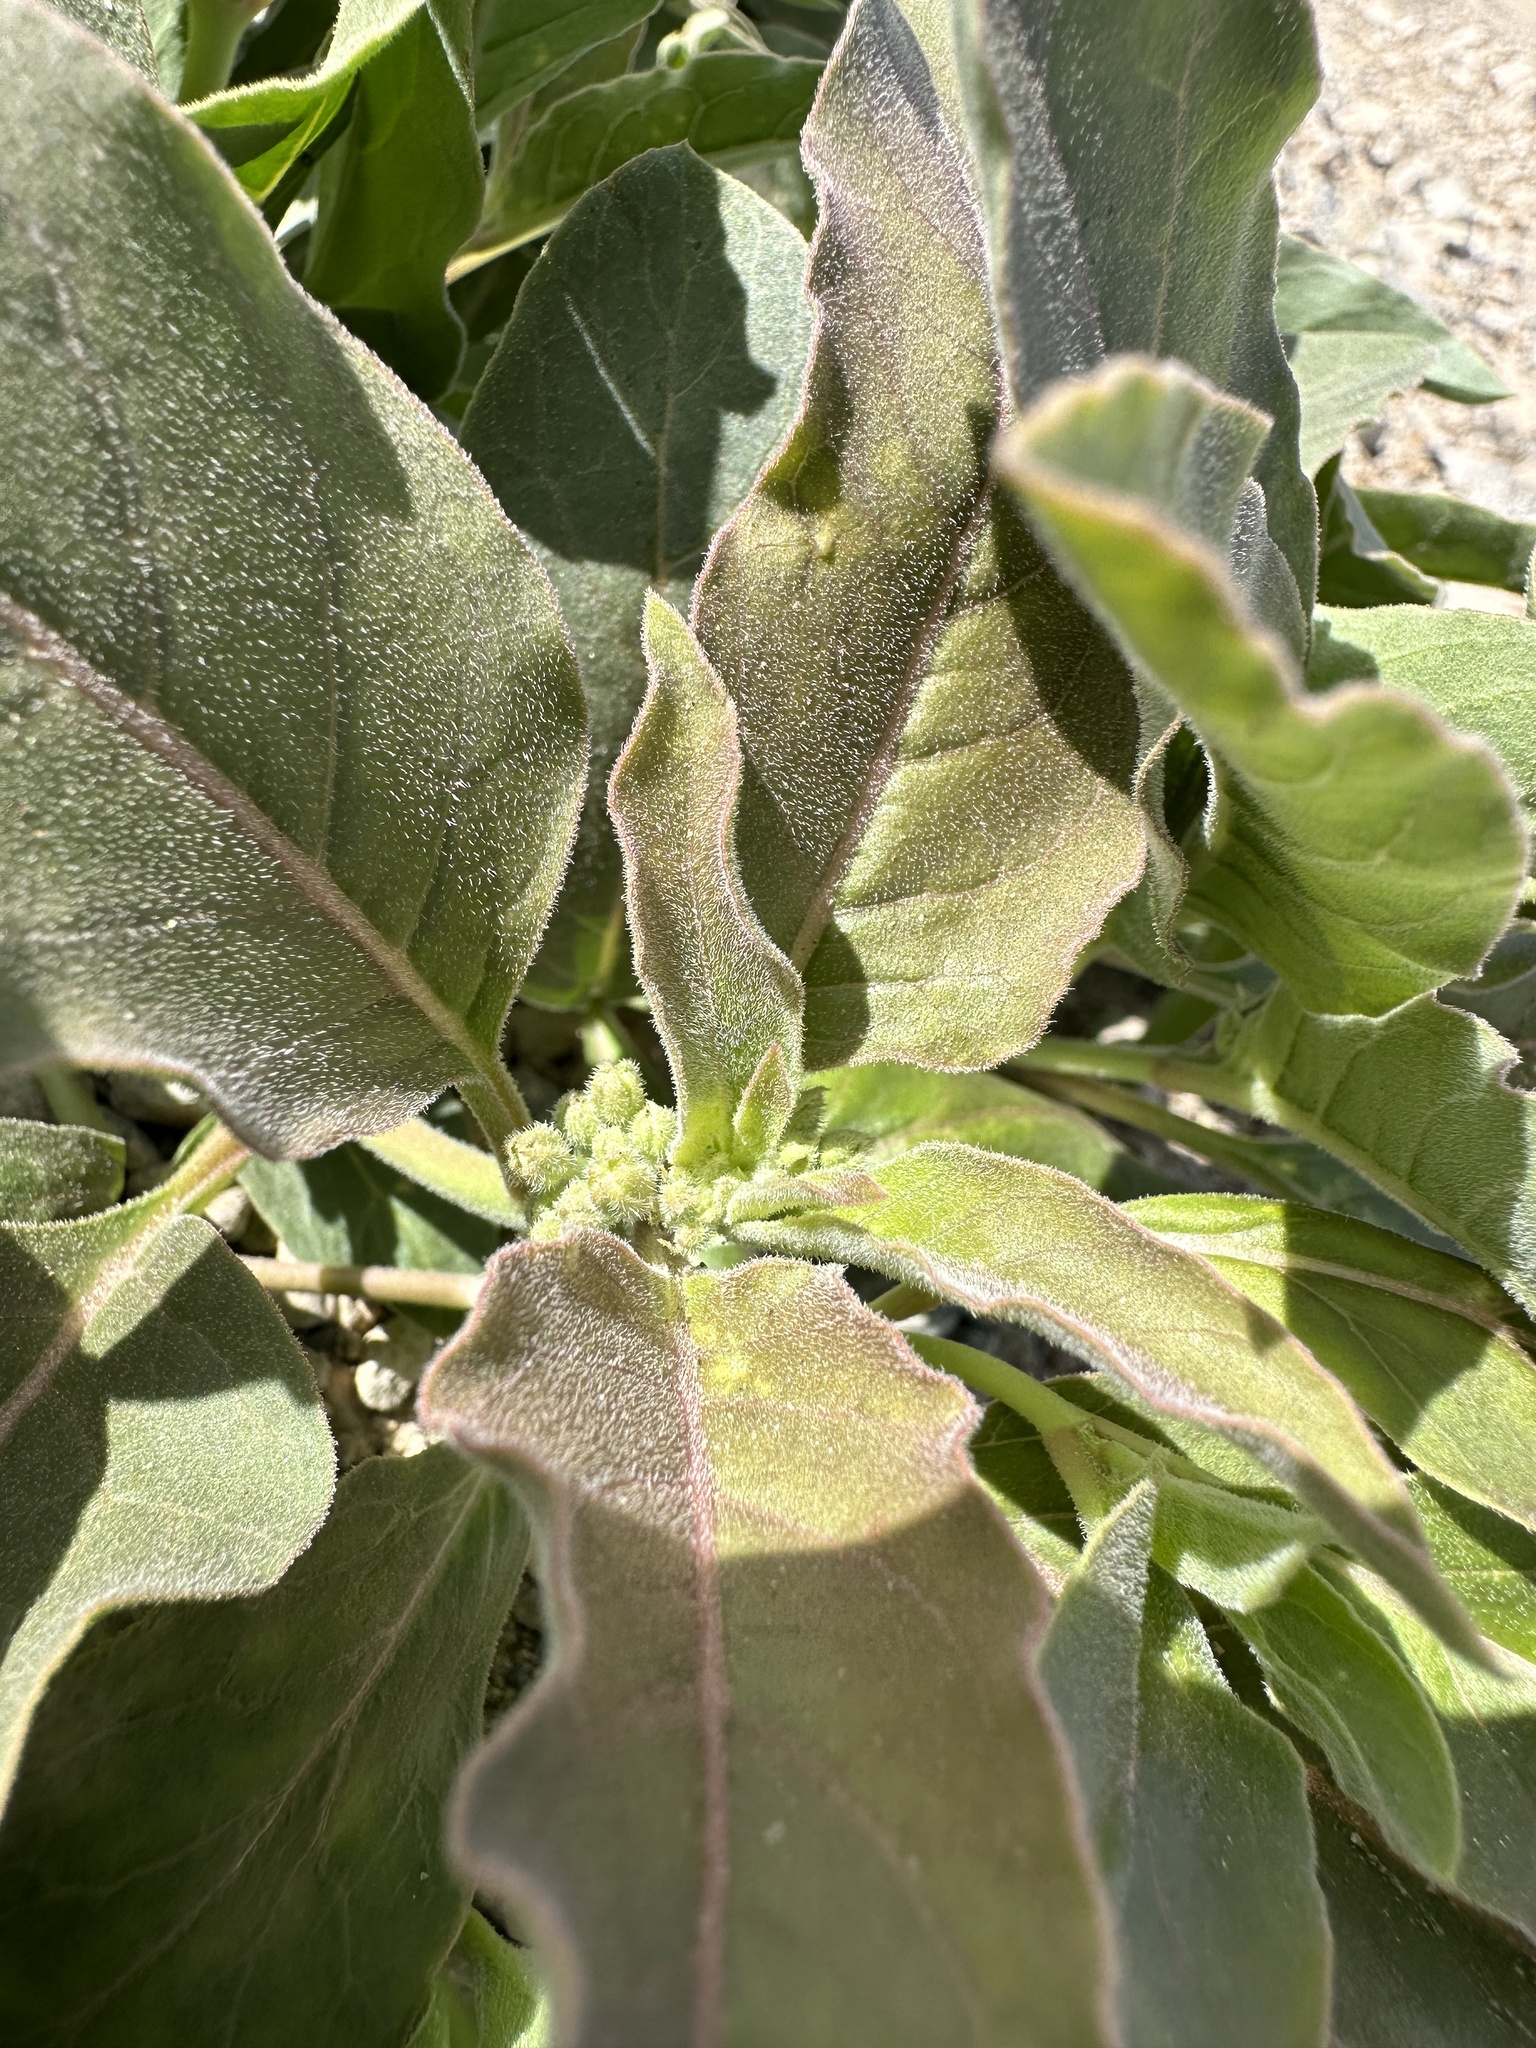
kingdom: Plantae
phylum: Tracheophyta
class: Magnoliopsida
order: Gentianales
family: Apocynaceae
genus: Asclepias
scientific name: Asclepias nyctaginifolia
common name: Mojave milkweed
